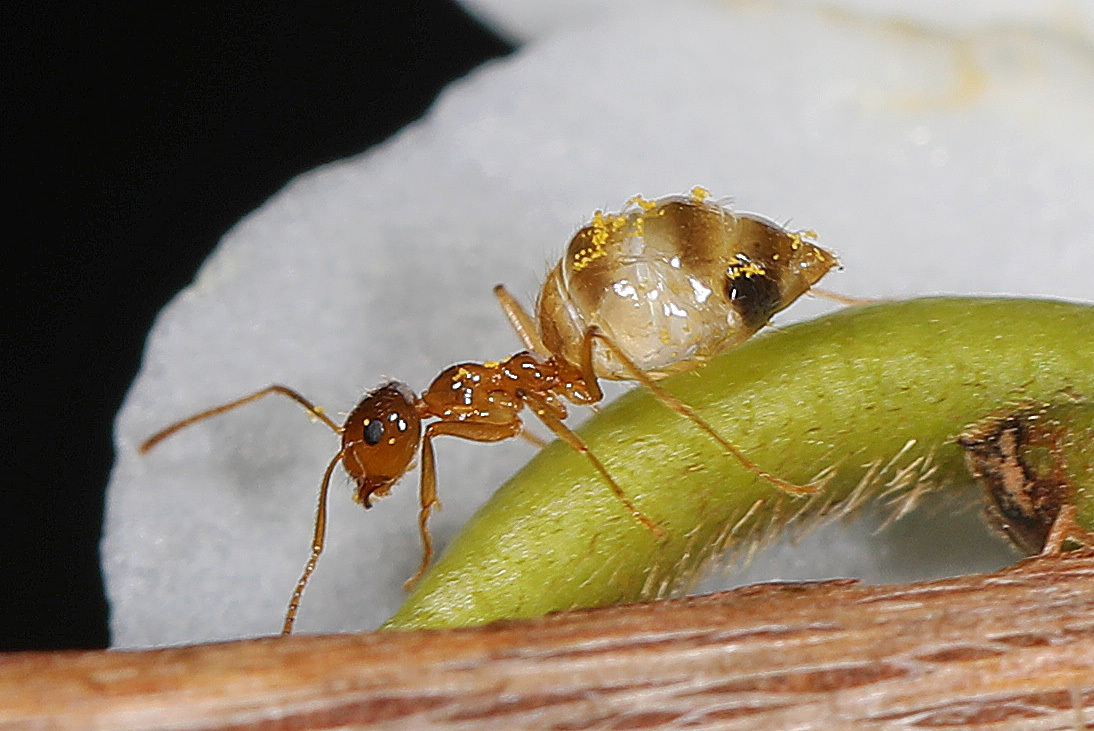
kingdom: Animalia
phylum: Arthropoda
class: Insecta
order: Hymenoptera
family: Formicidae
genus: Prenolepis
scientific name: Prenolepis imparis
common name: Small honey ant
